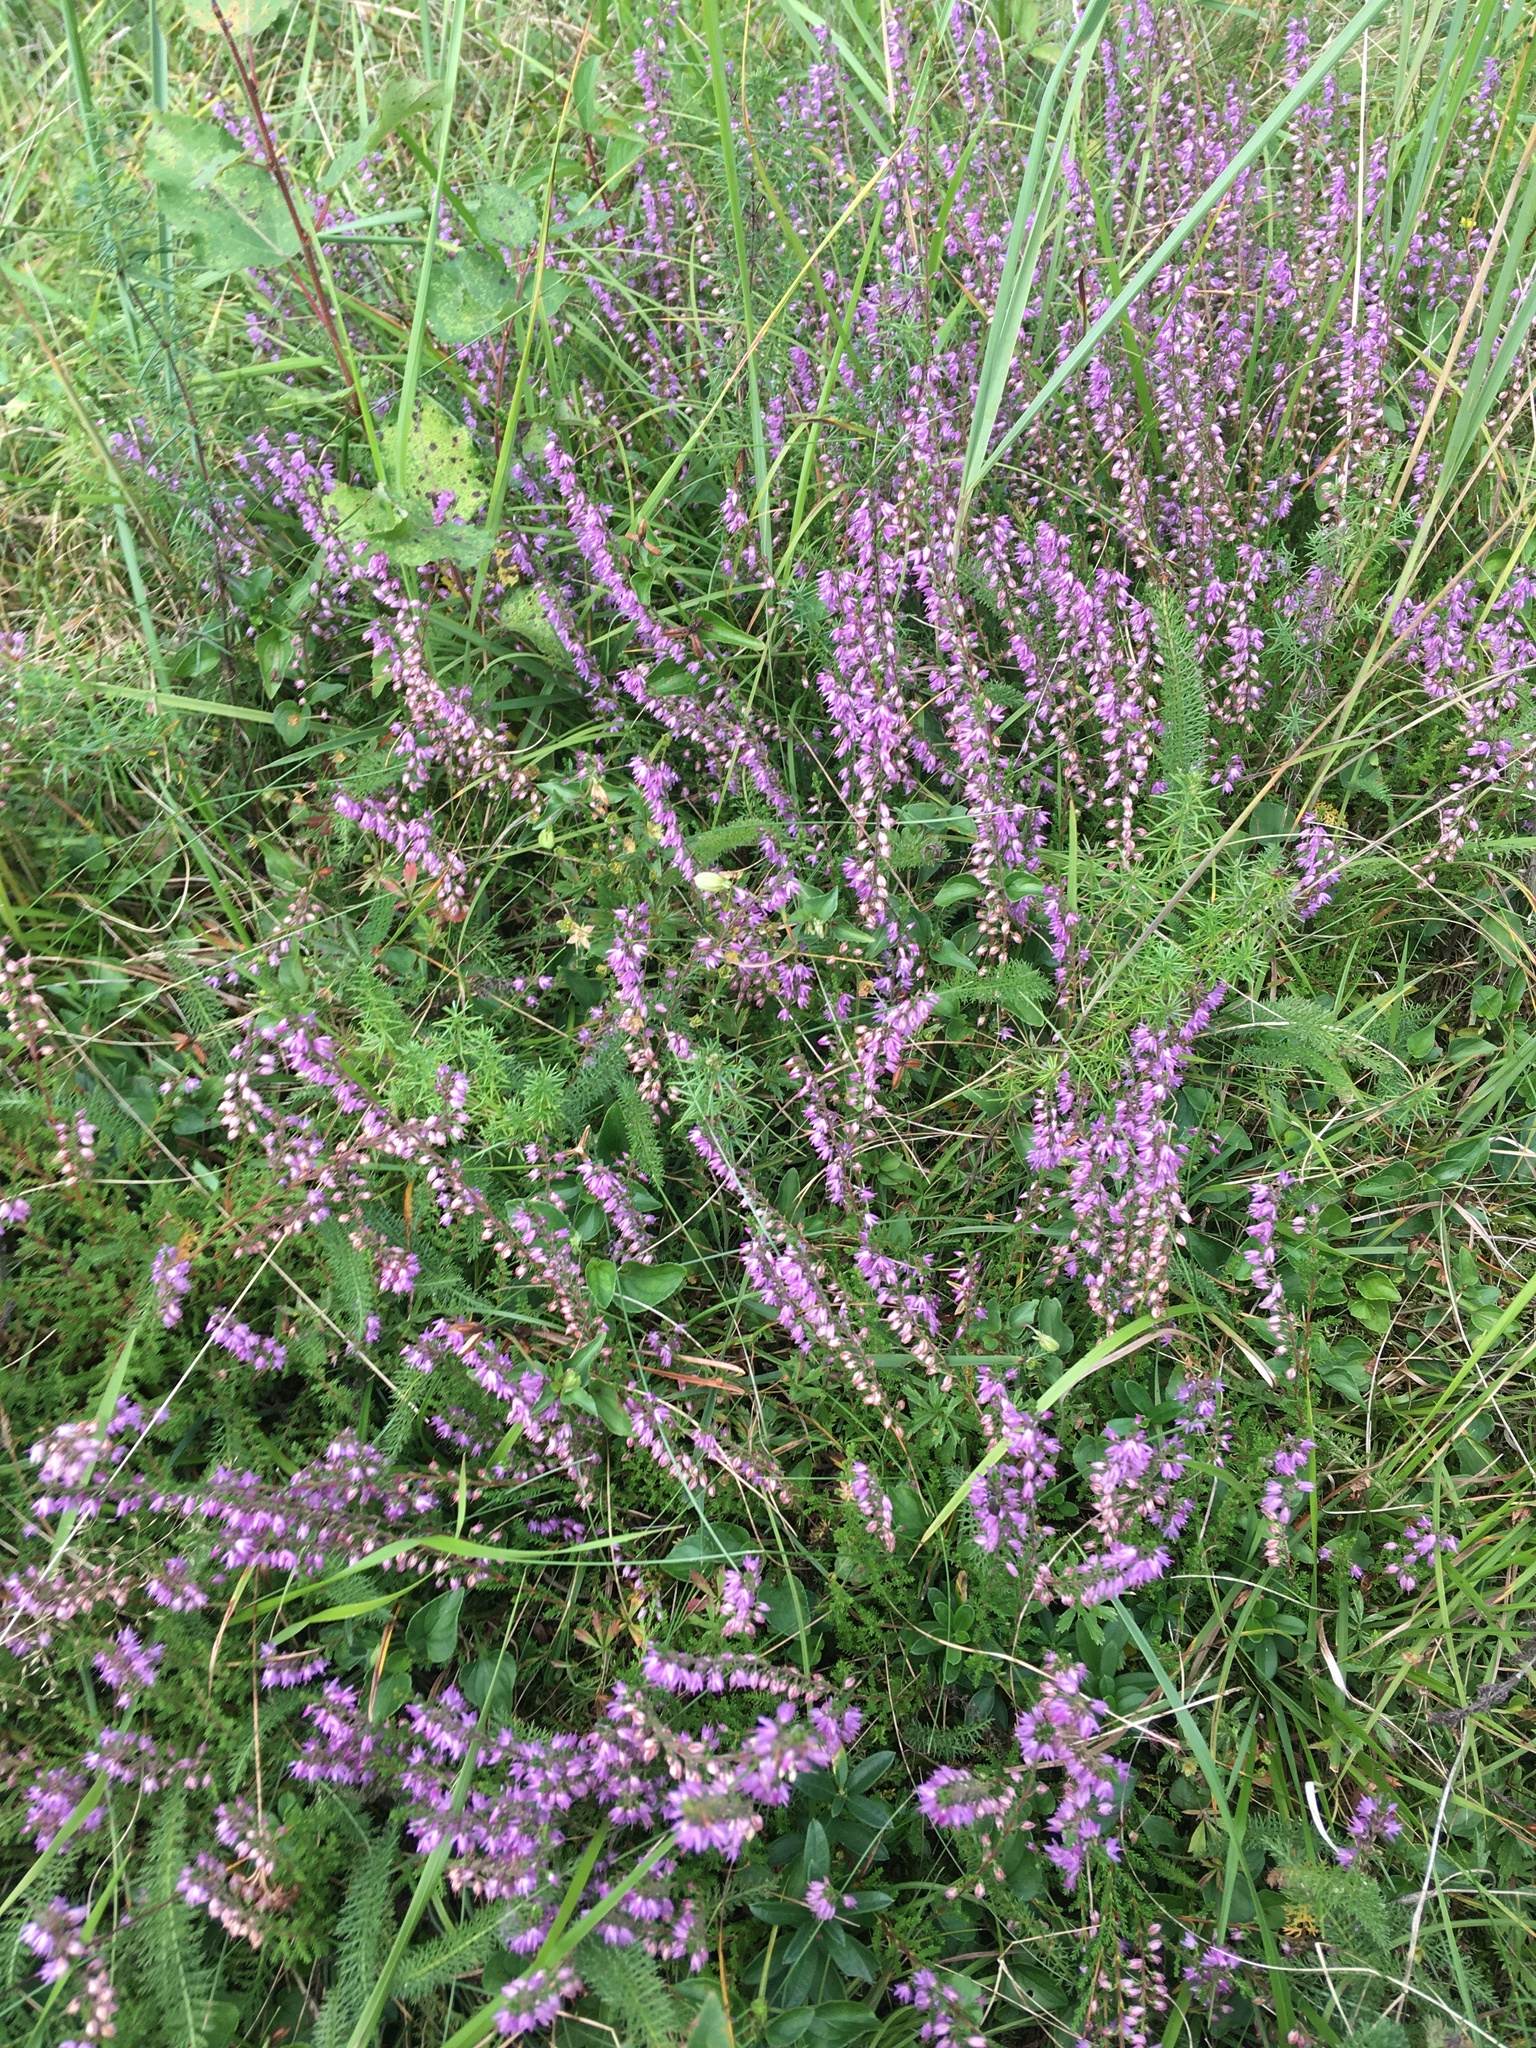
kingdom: Plantae
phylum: Tracheophyta
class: Magnoliopsida
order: Ericales
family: Ericaceae
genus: Calluna
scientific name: Calluna vulgaris
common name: Heather
